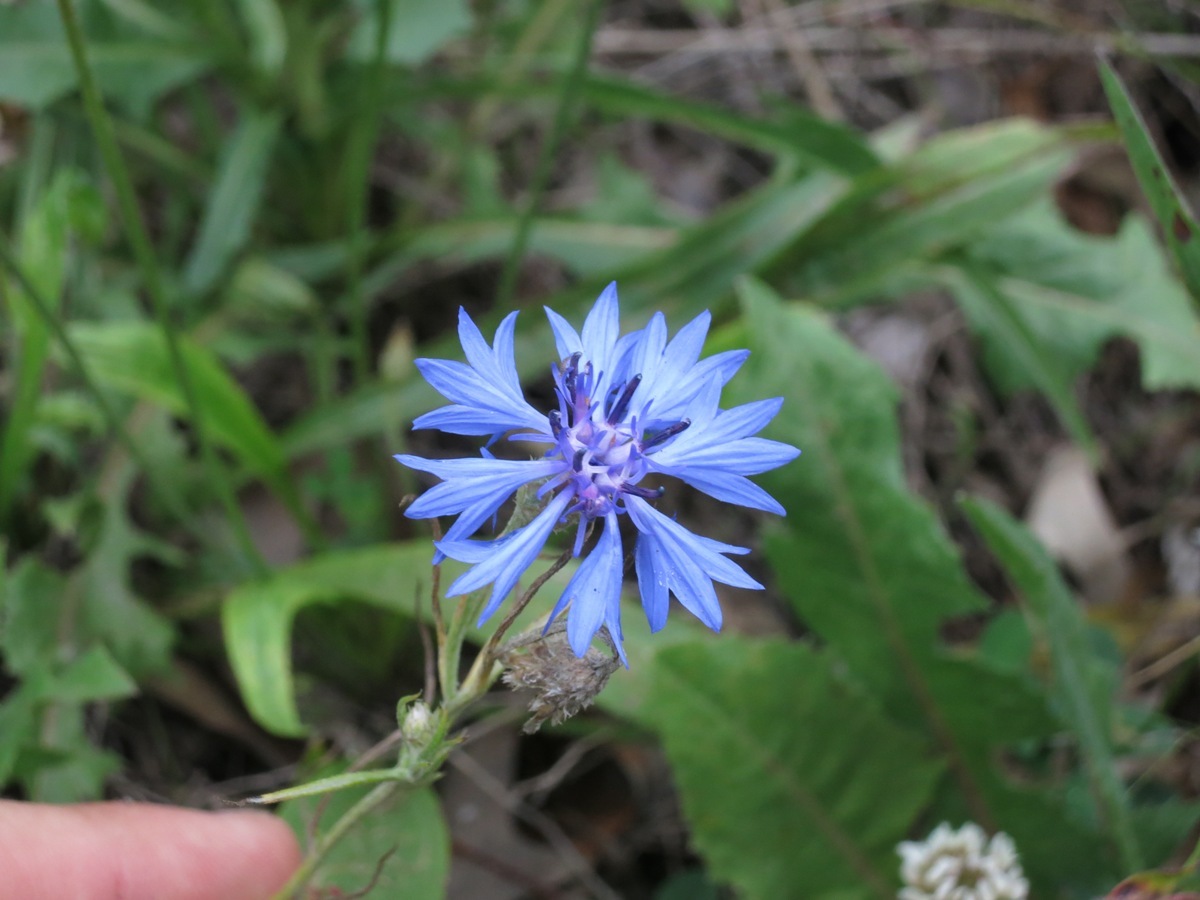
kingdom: Plantae
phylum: Tracheophyta
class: Magnoliopsida
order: Asterales
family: Asteraceae
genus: Centaurea
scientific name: Centaurea cyanus
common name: Cornflower
